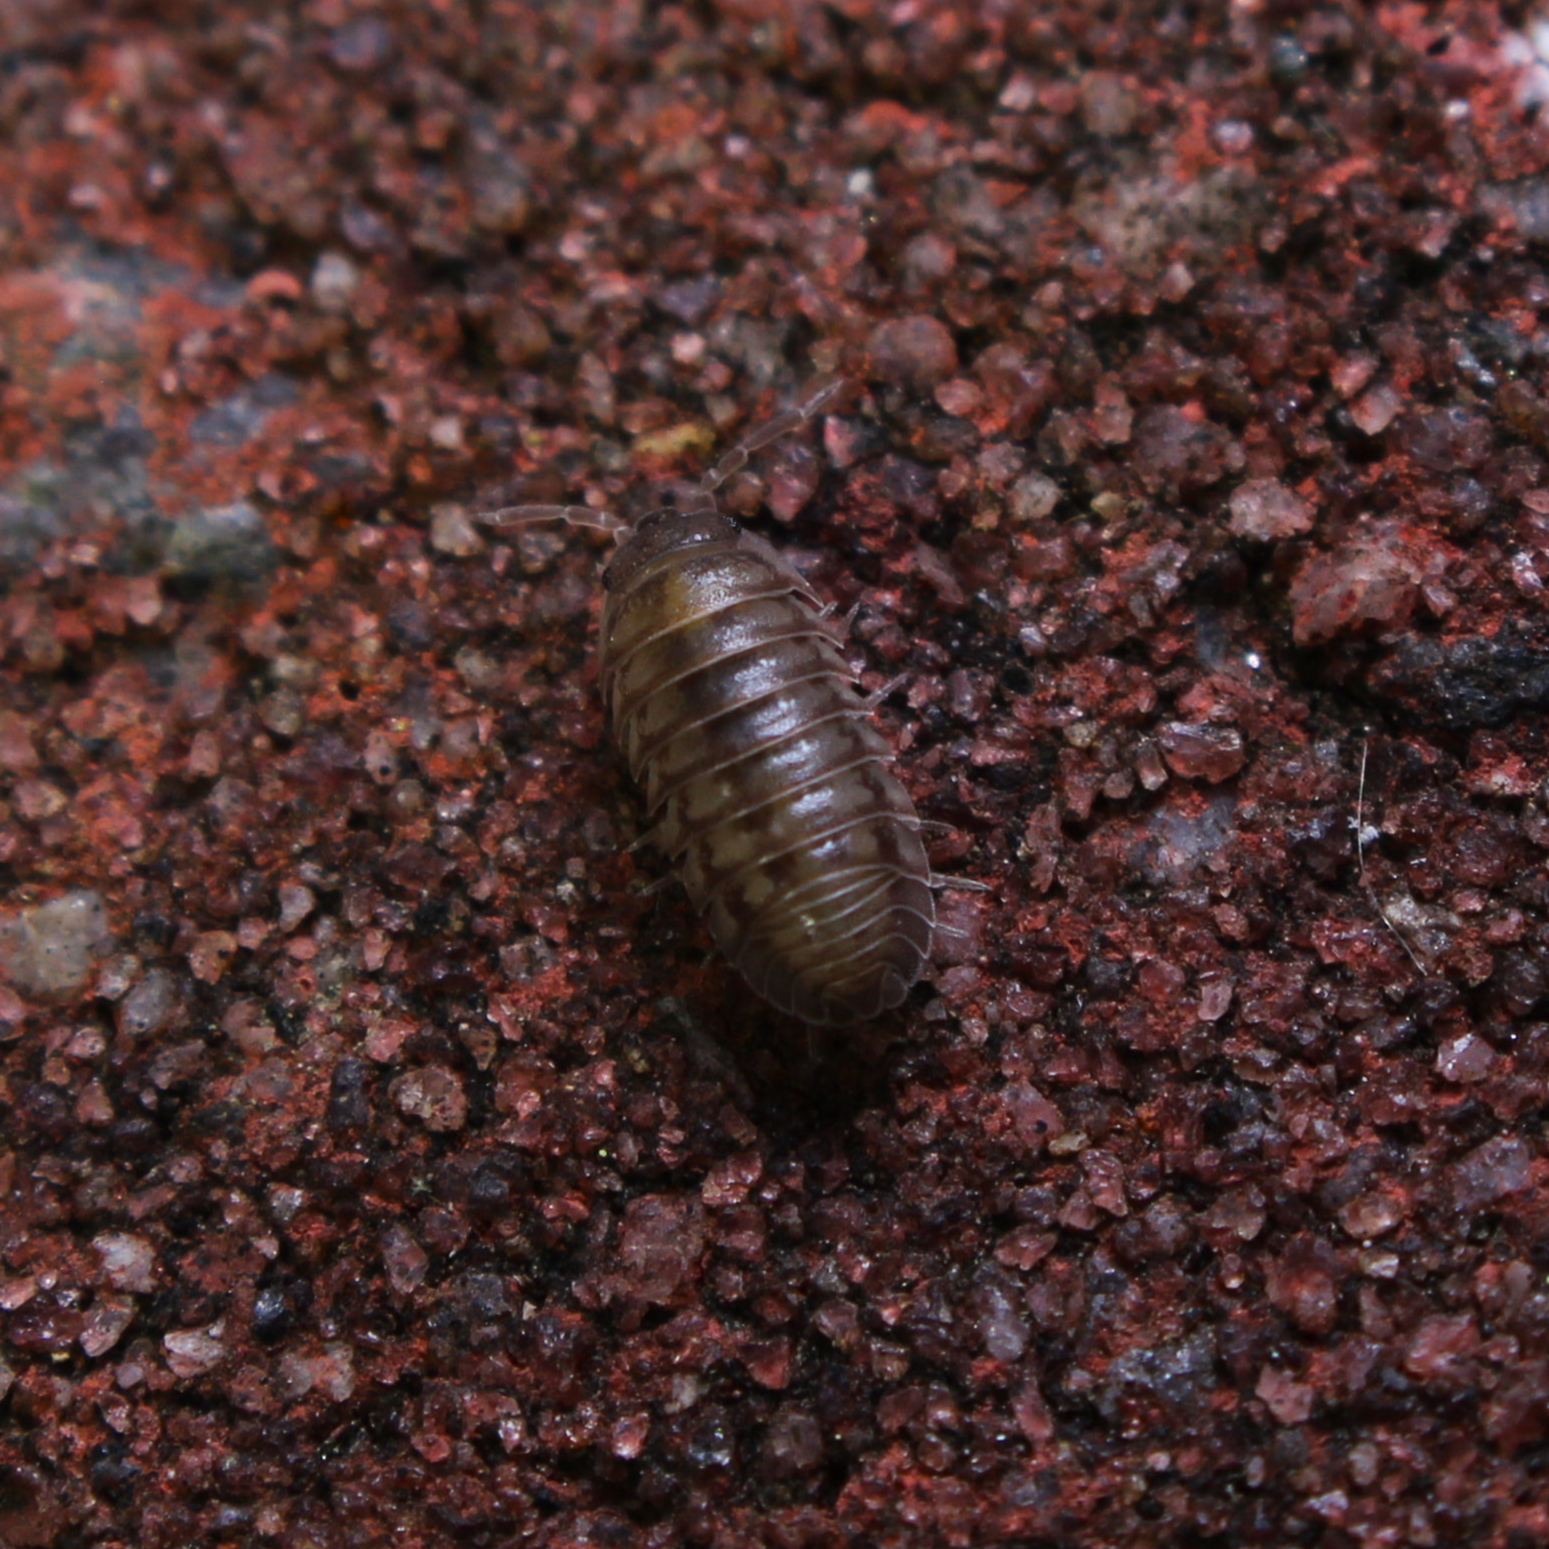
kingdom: Animalia
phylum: Arthropoda
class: Malacostraca
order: Isopoda
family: Armadillidiidae
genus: Armadillidium
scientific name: Armadillidium nasatum
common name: Isopod
